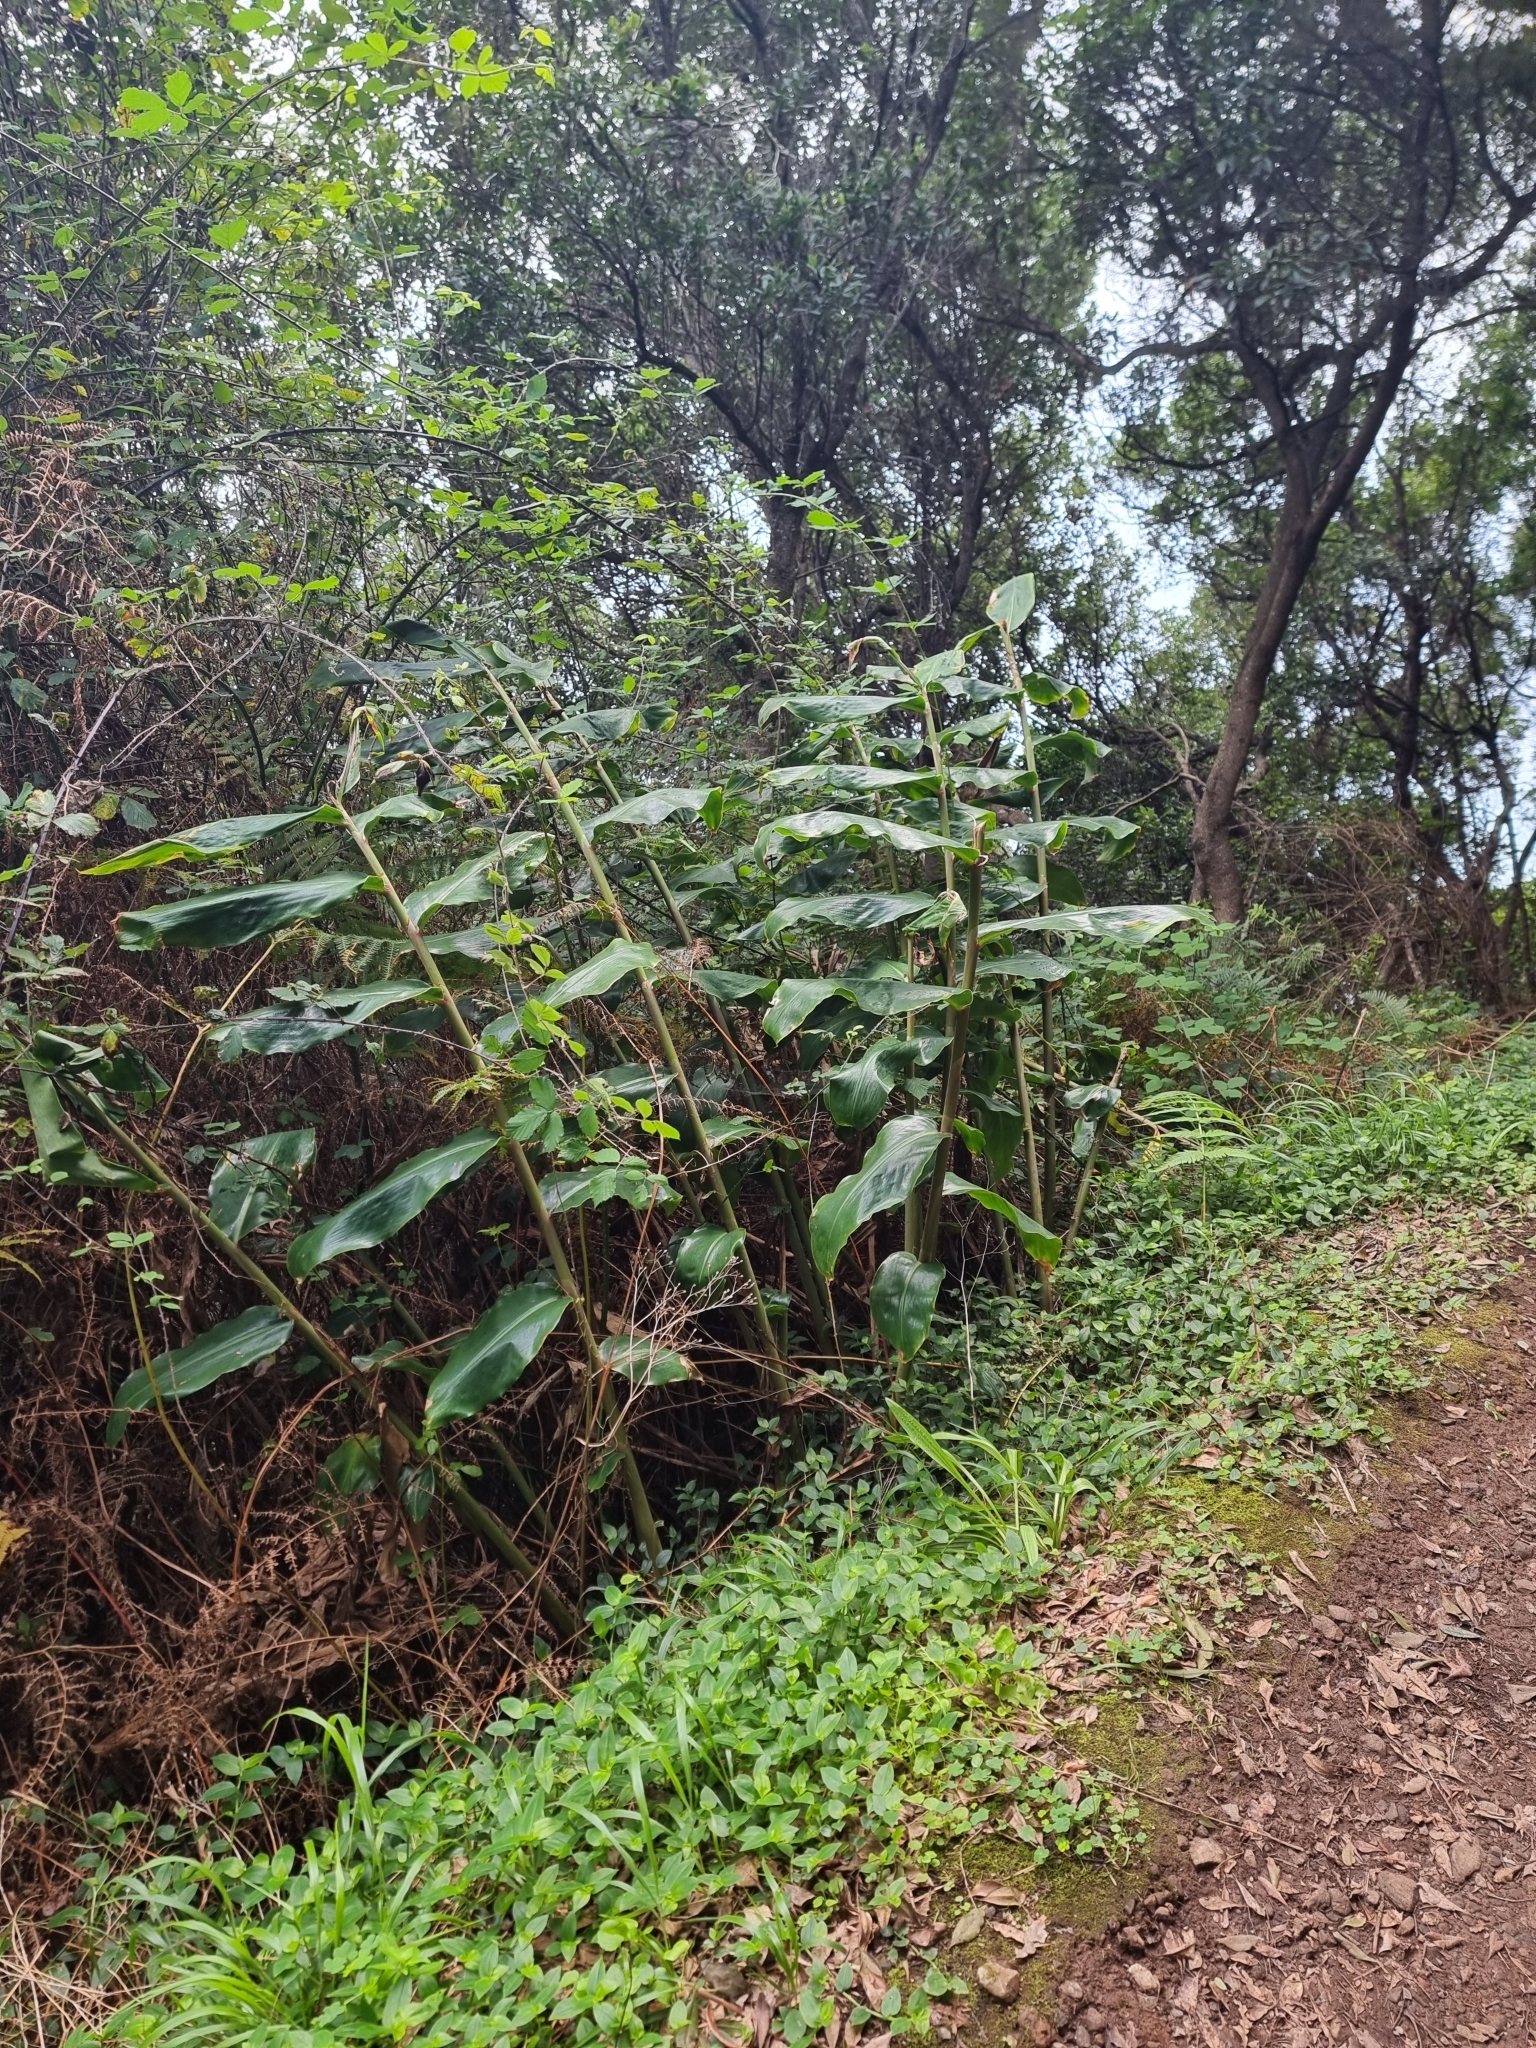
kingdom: Plantae
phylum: Tracheophyta
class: Liliopsida
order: Zingiberales
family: Zingiberaceae
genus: Hedychium
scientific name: Hedychium gardnerianum
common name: Himalayan ginger
